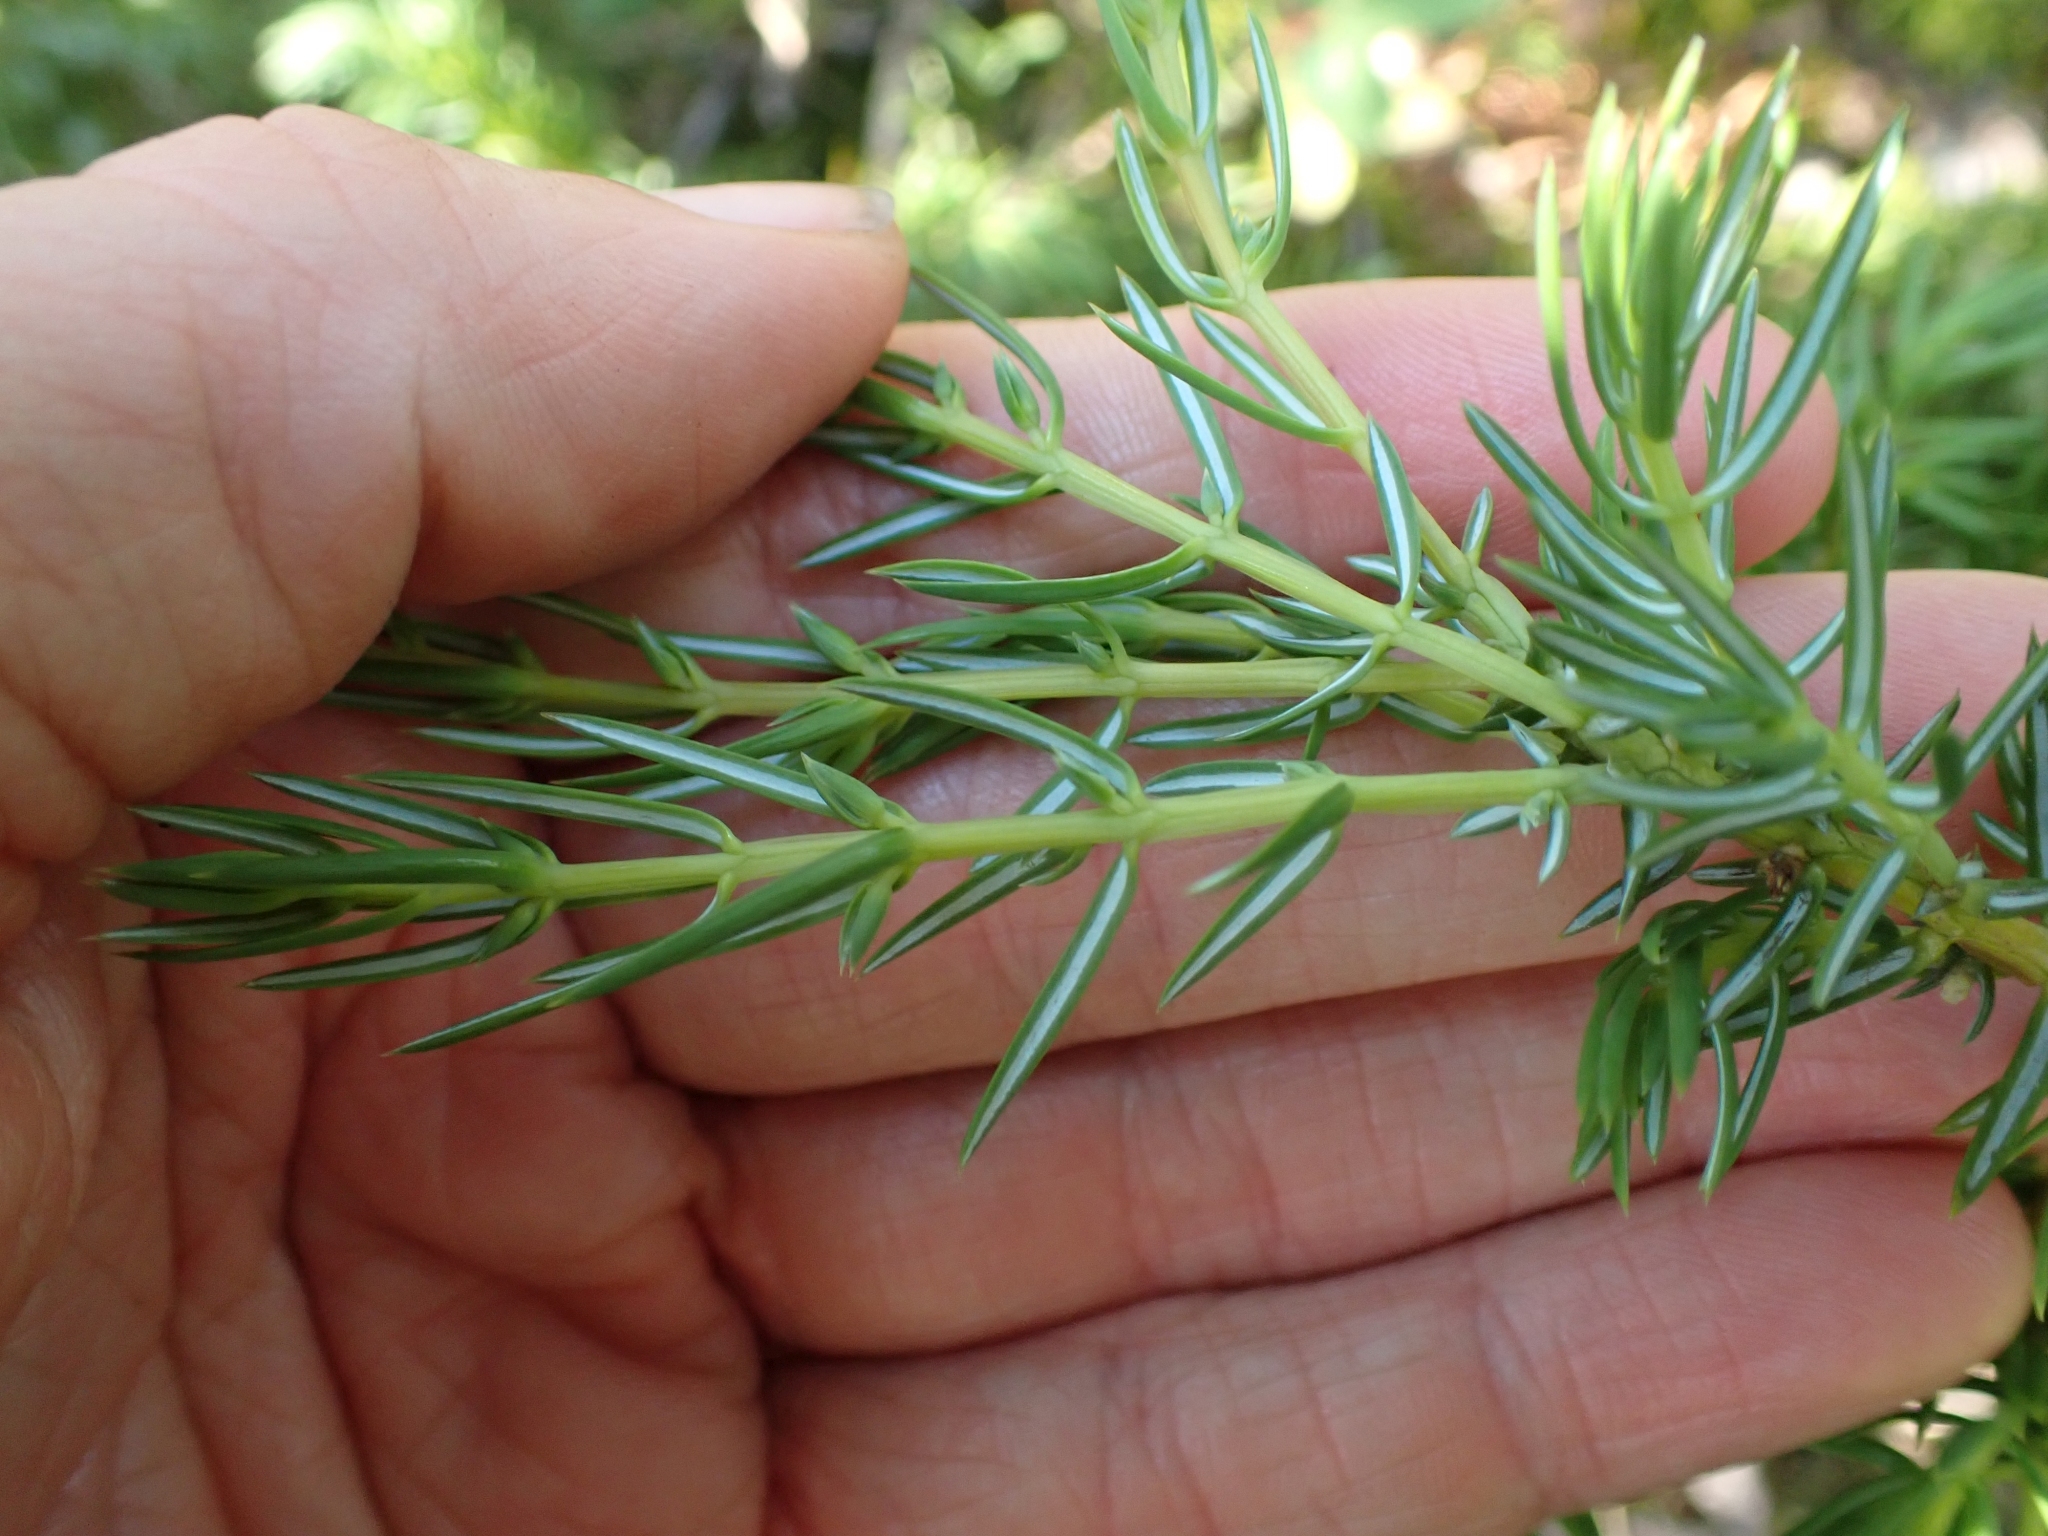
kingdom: Plantae
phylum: Tracheophyta
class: Pinopsida
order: Pinales
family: Cupressaceae
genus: Juniperus
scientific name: Juniperus communis
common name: Common juniper
